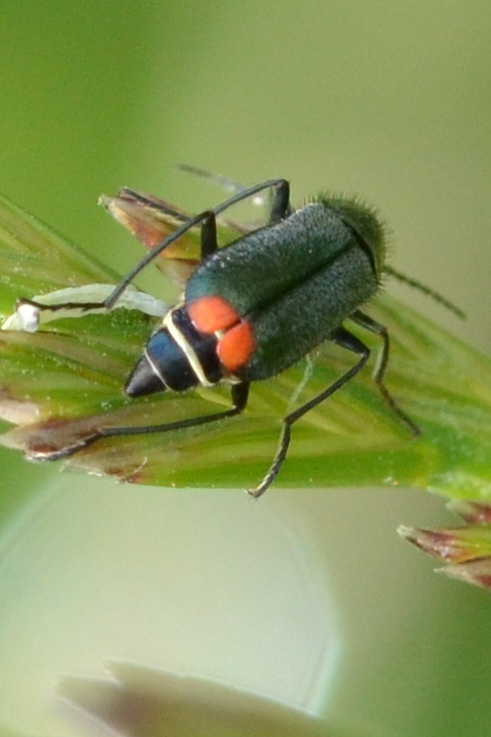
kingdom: Animalia
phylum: Arthropoda
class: Insecta
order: Coleoptera
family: Melyridae
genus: Malachius
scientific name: Malachius bipustulatus
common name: Malachite beetle
